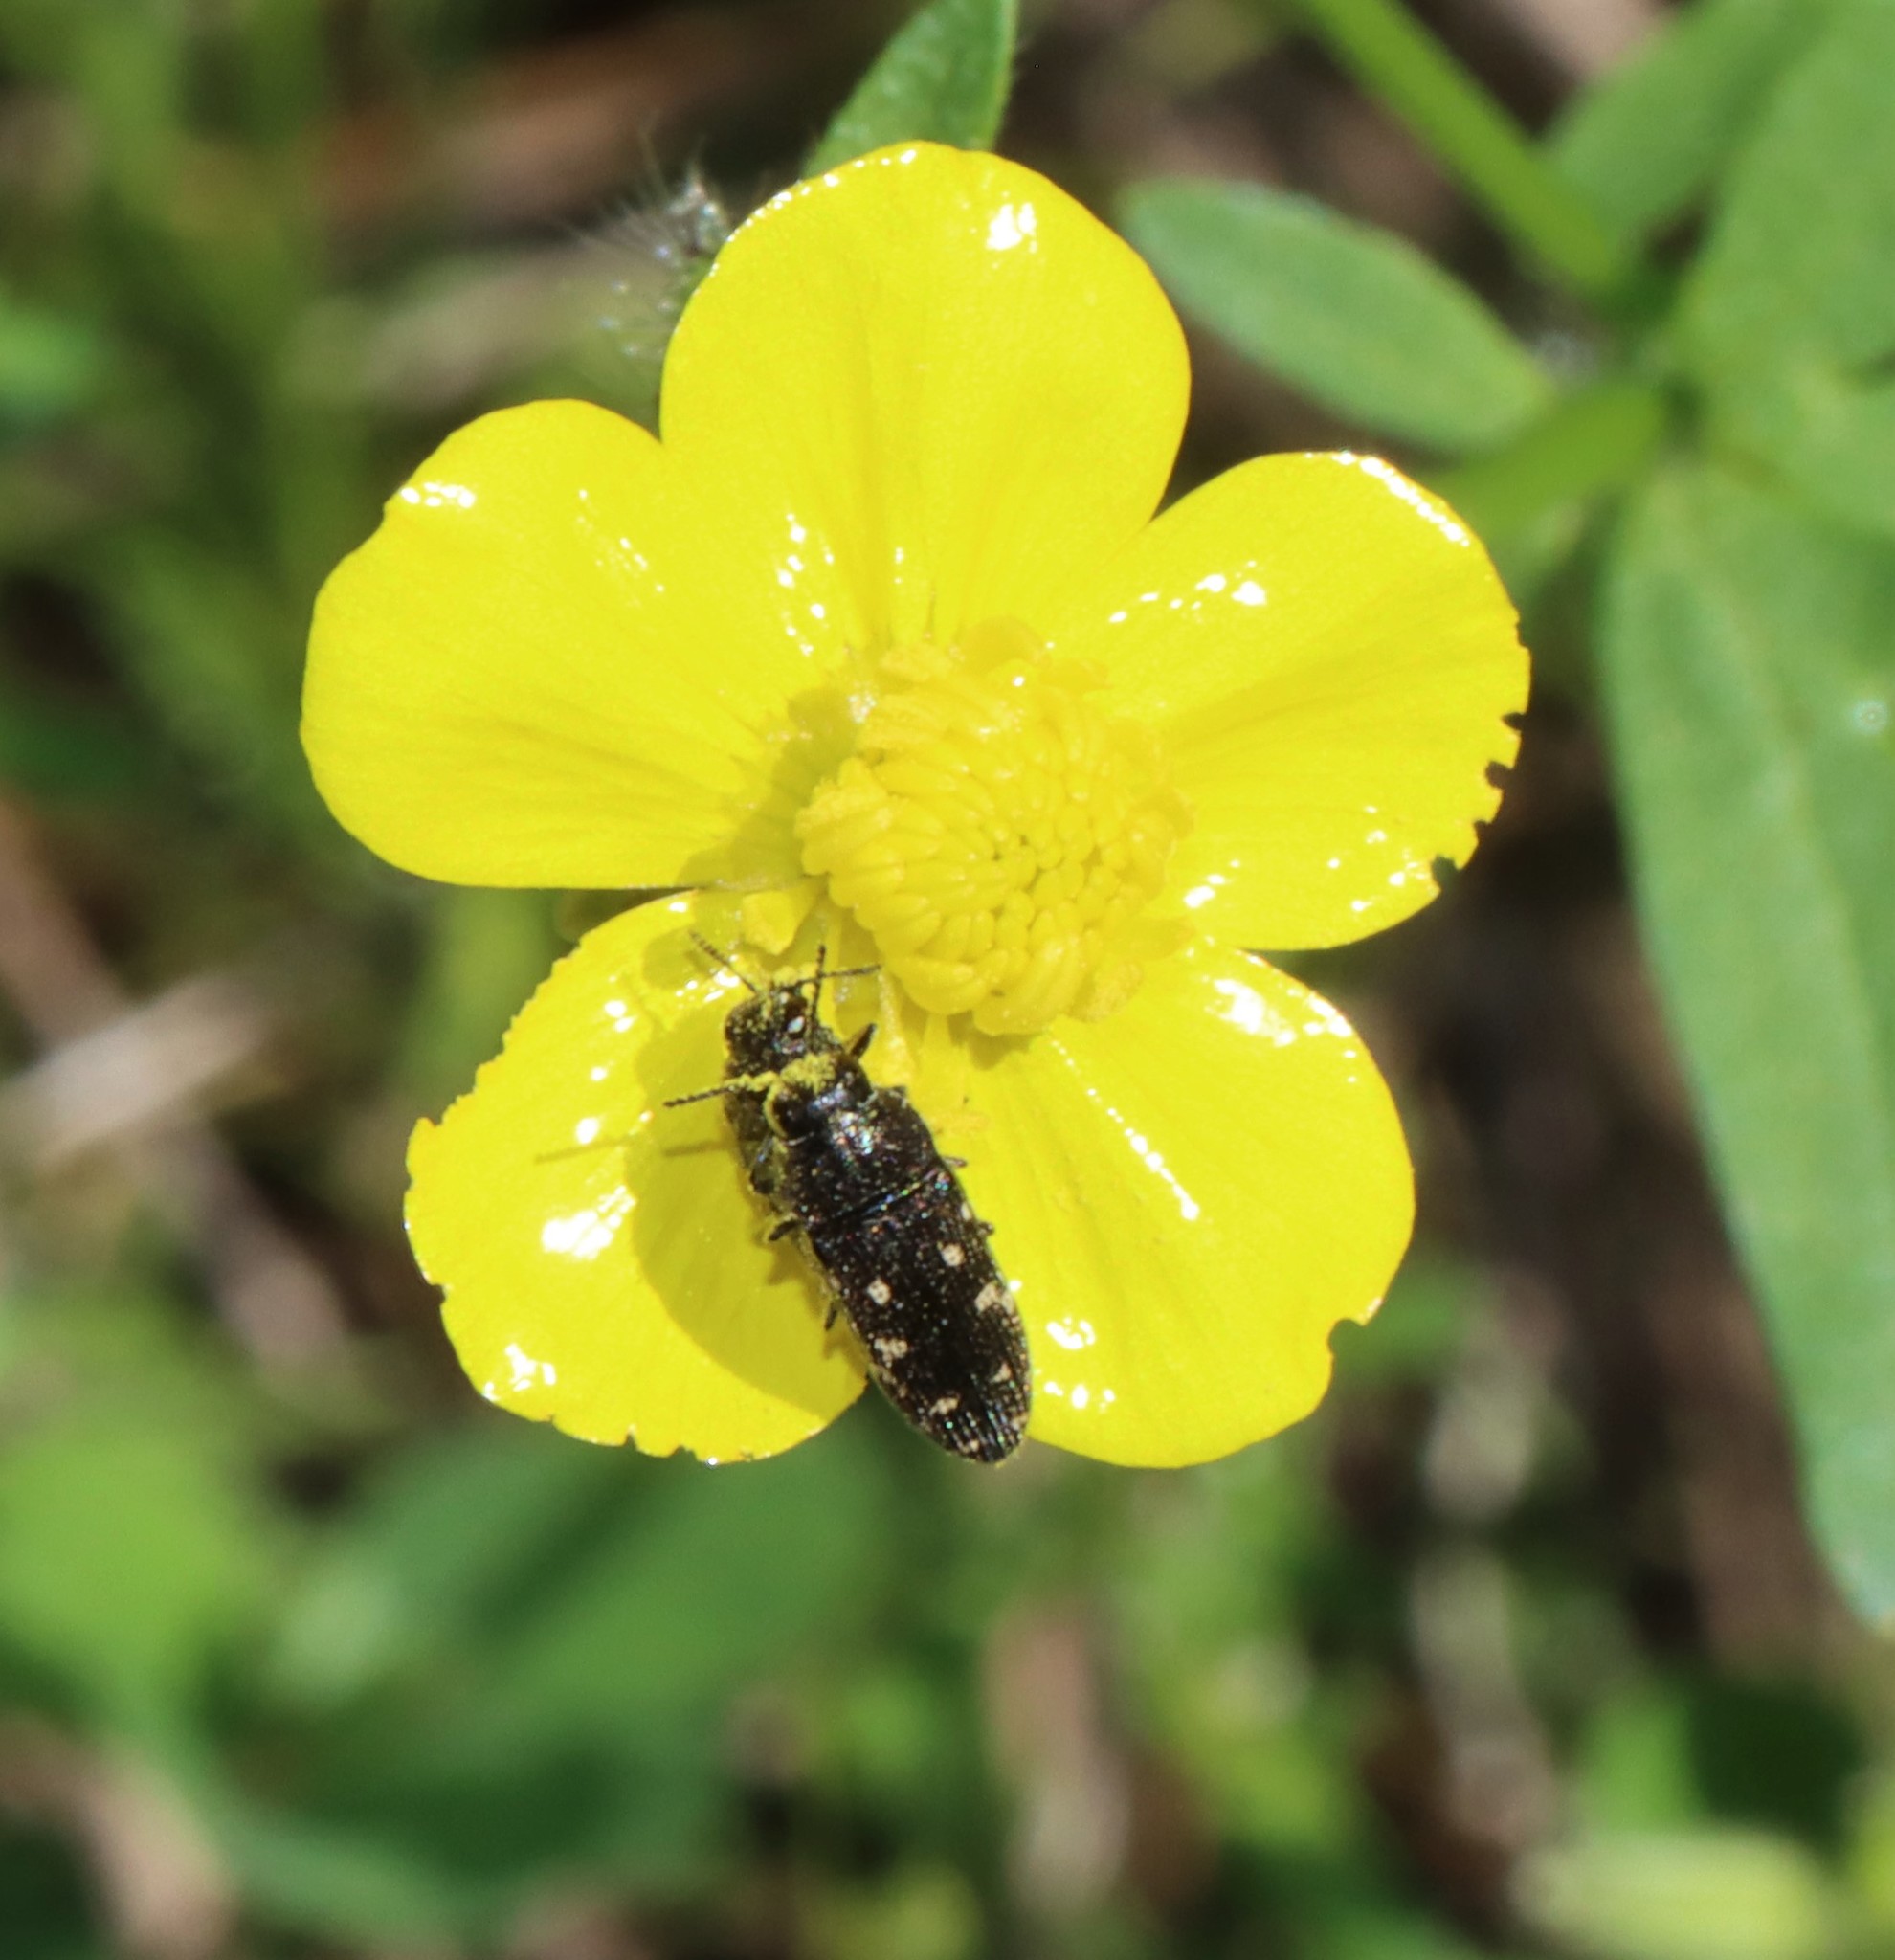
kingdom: Animalia
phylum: Arthropoda
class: Insecta
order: Coleoptera
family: Buprestidae
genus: Acmaeodera
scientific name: Acmaeodera tubulus
